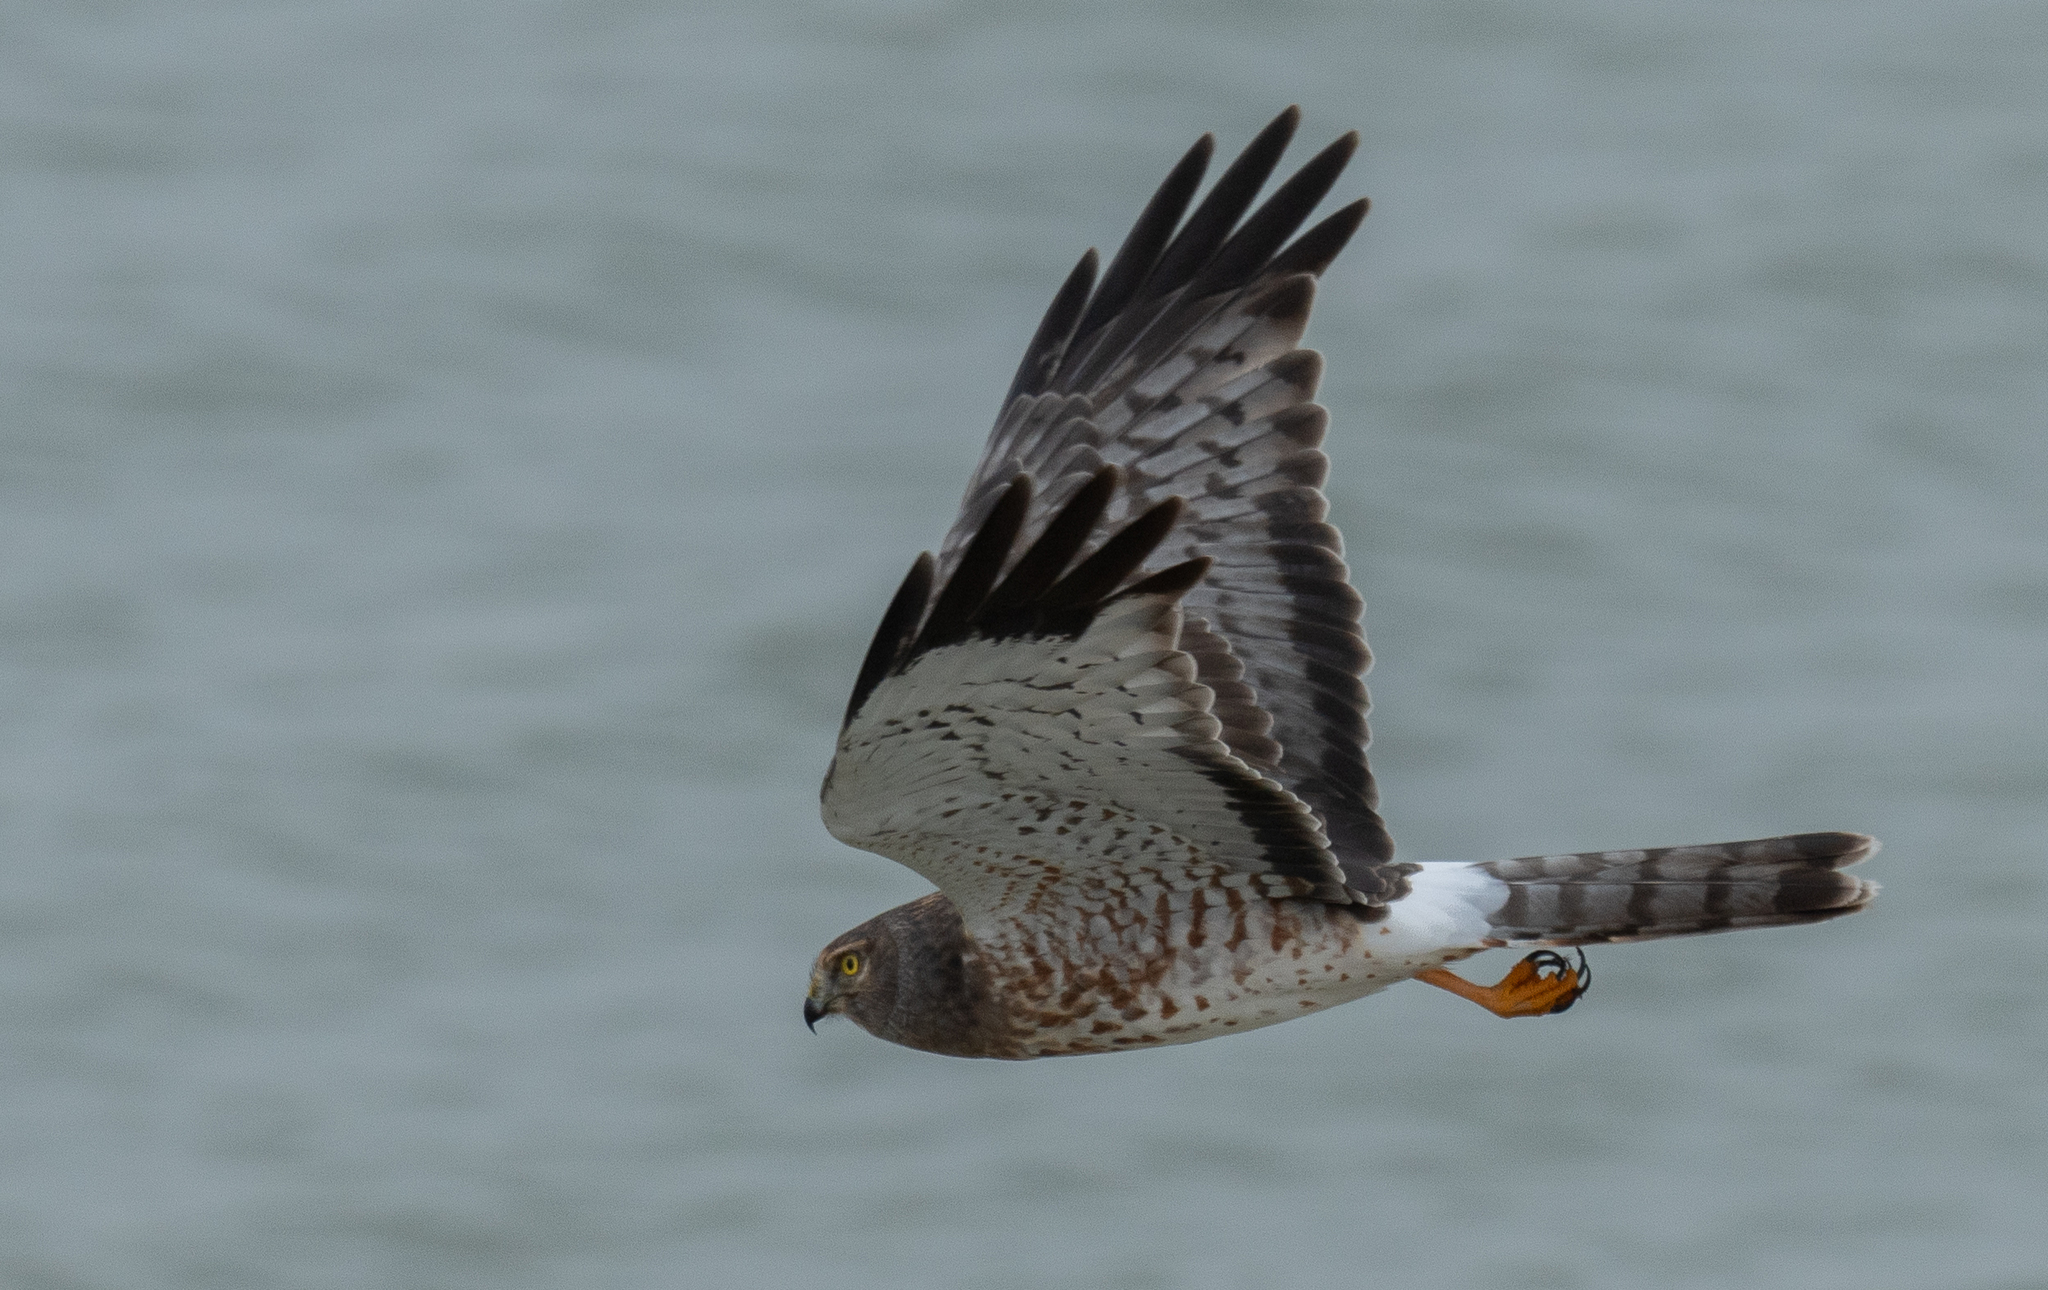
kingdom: Animalia
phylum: Chordata
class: Aves
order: Accipitriformes
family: Accipitridae
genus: Circus
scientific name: Circus cyaneus
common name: Hen harrier
